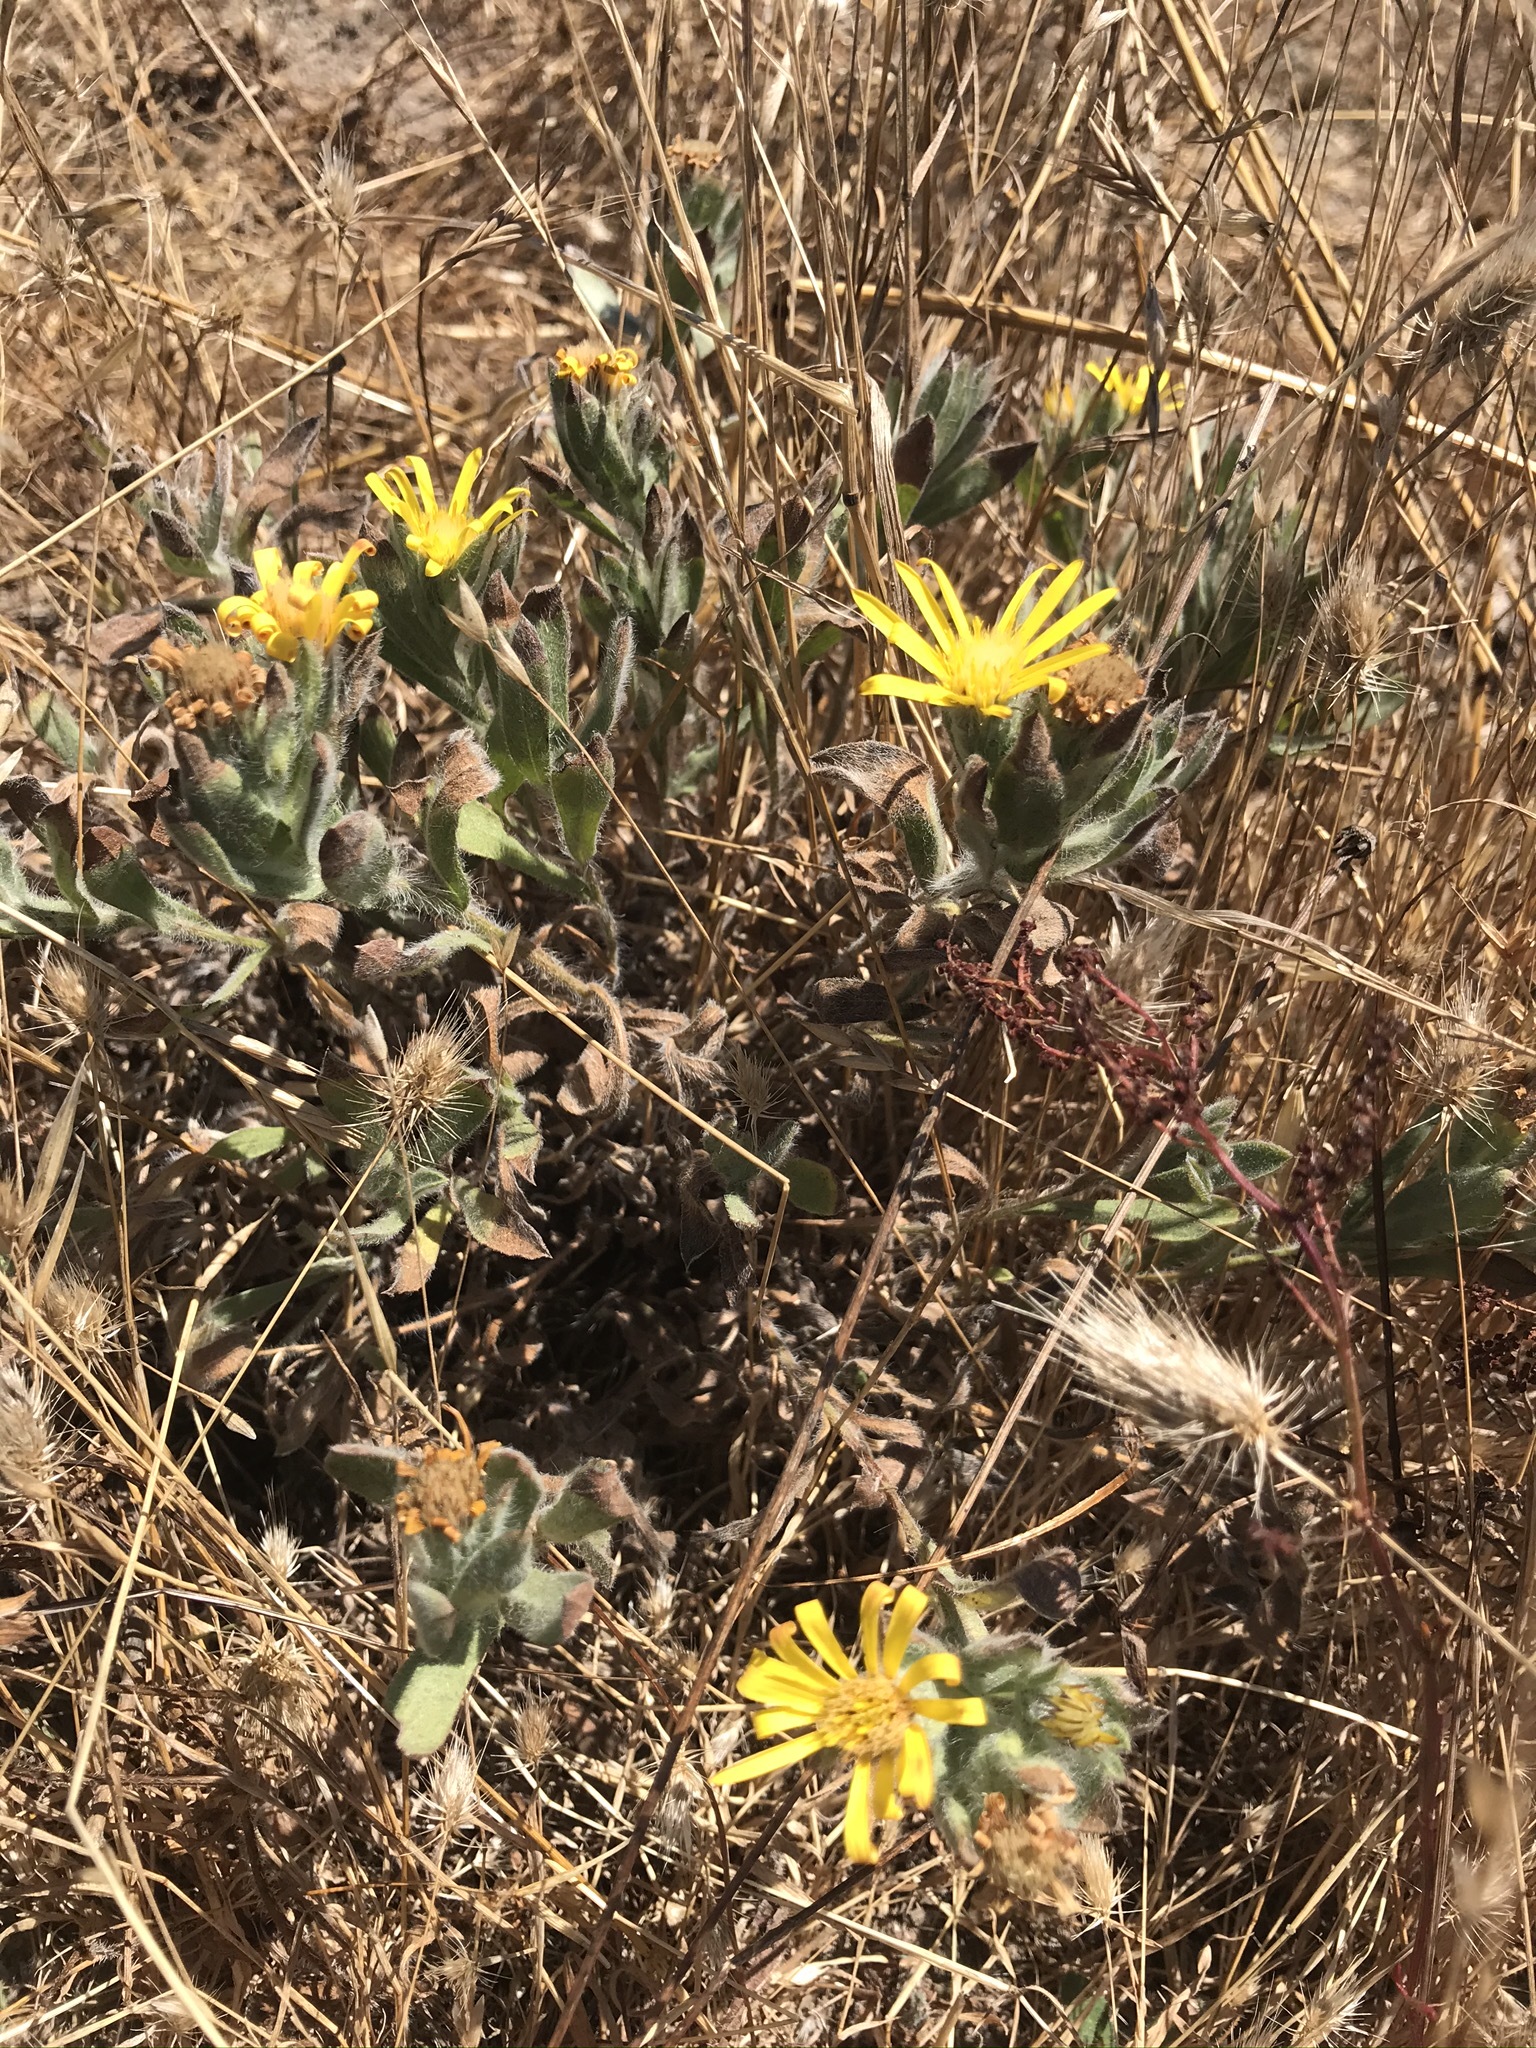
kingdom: Plantae
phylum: Tracheophyta
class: Magnoliopsida
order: Asterales
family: Asteraceae
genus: Heterotheca
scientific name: Heterotheca sessiliflora
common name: Sessile-flower golden-aster
